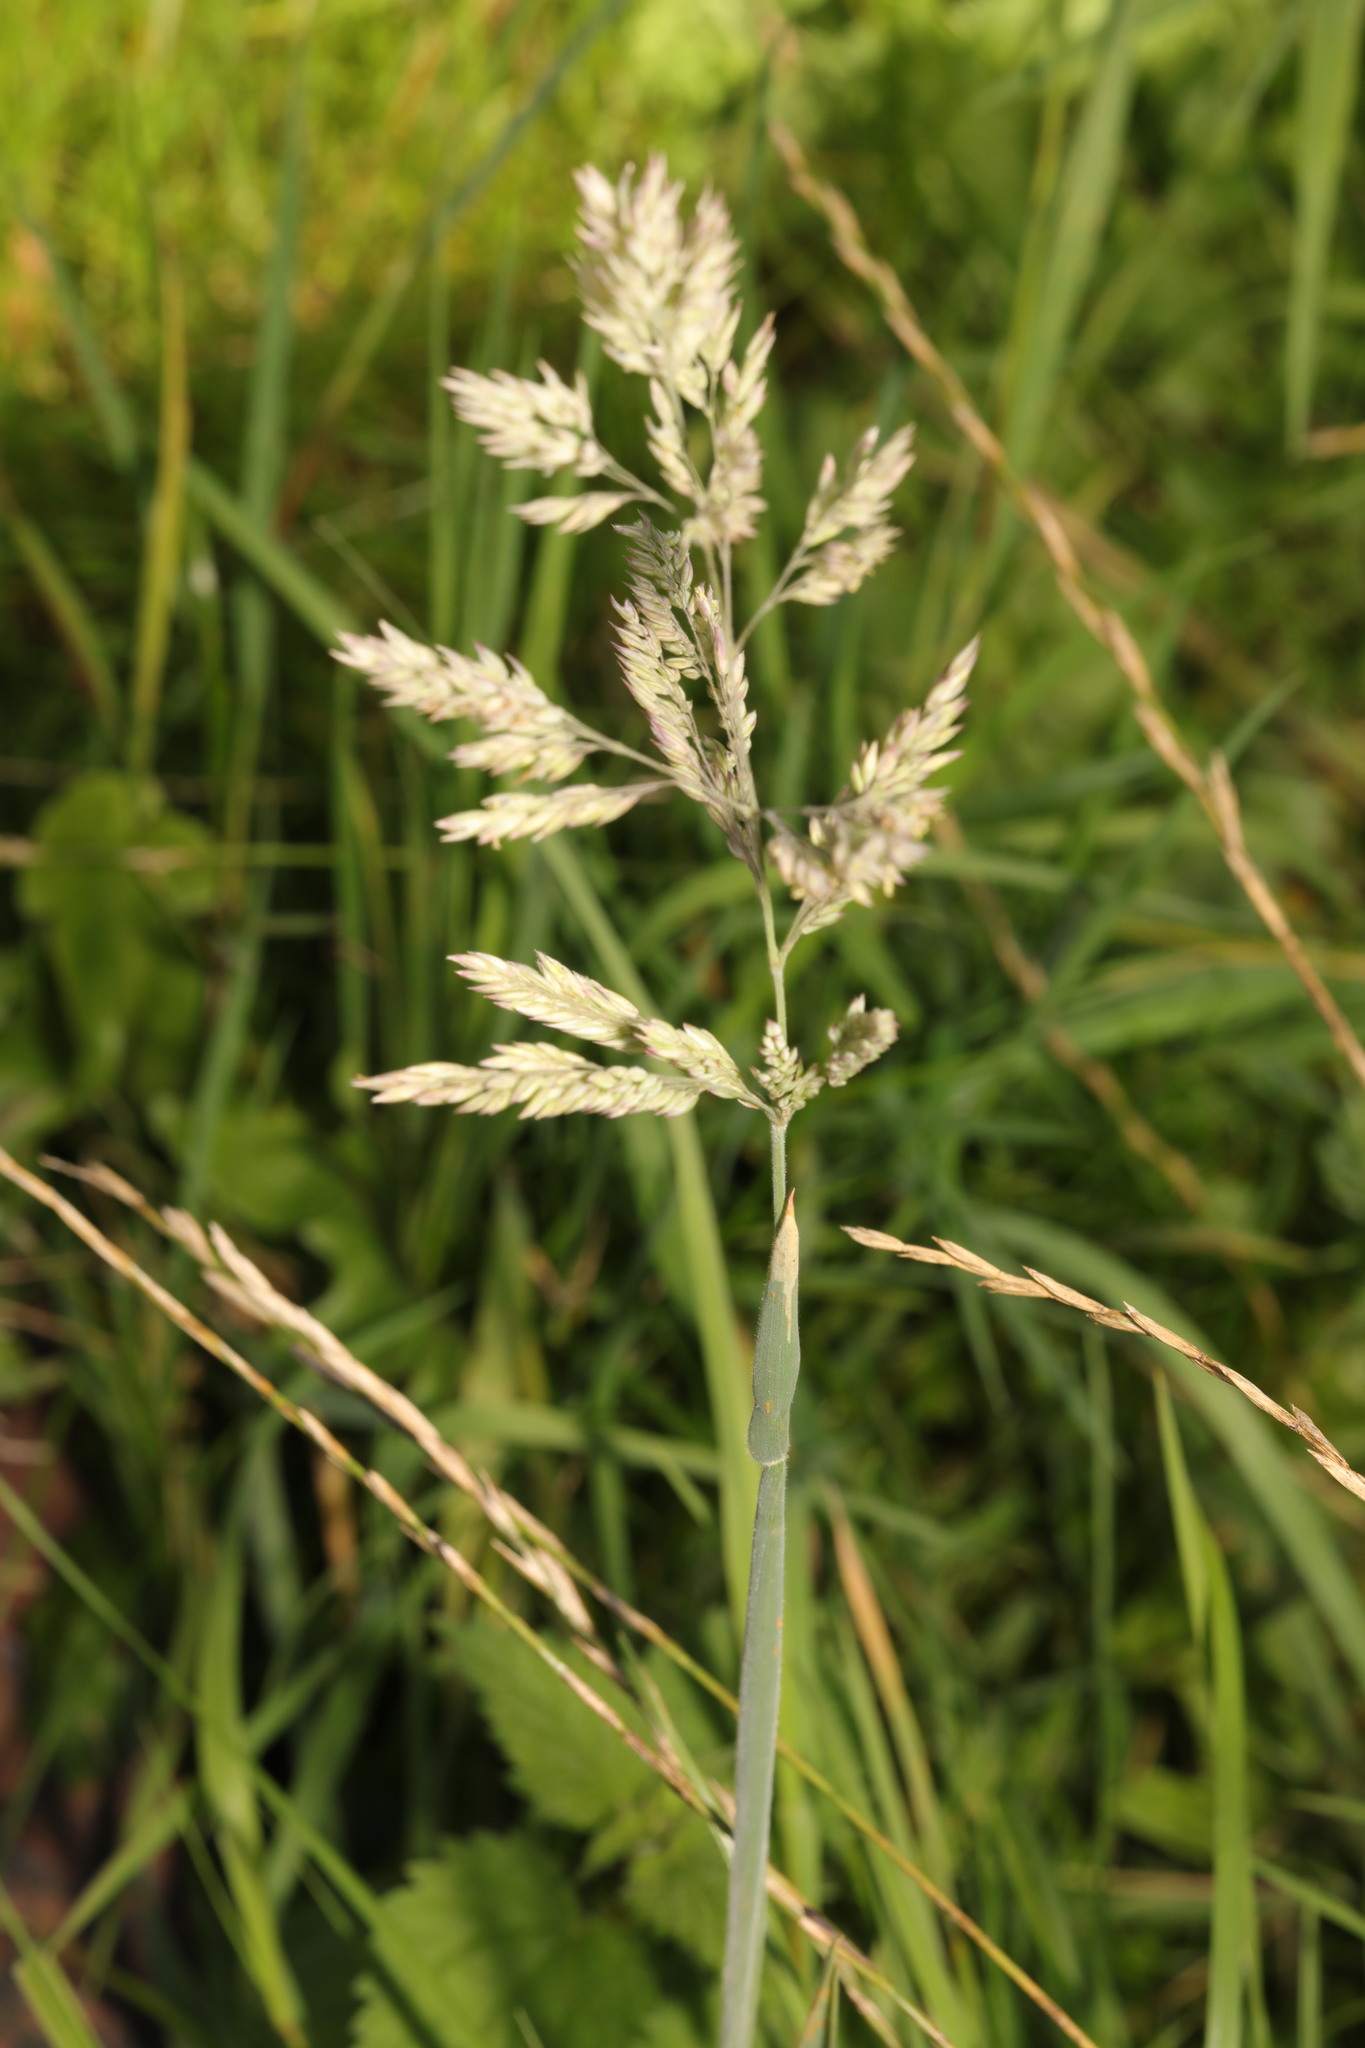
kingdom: Plantae
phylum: Tracheophyta
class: Liliopsida
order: Poales
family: Poaceae
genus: Holcus
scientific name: Holcus lanatus
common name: Yorkshire-fog
